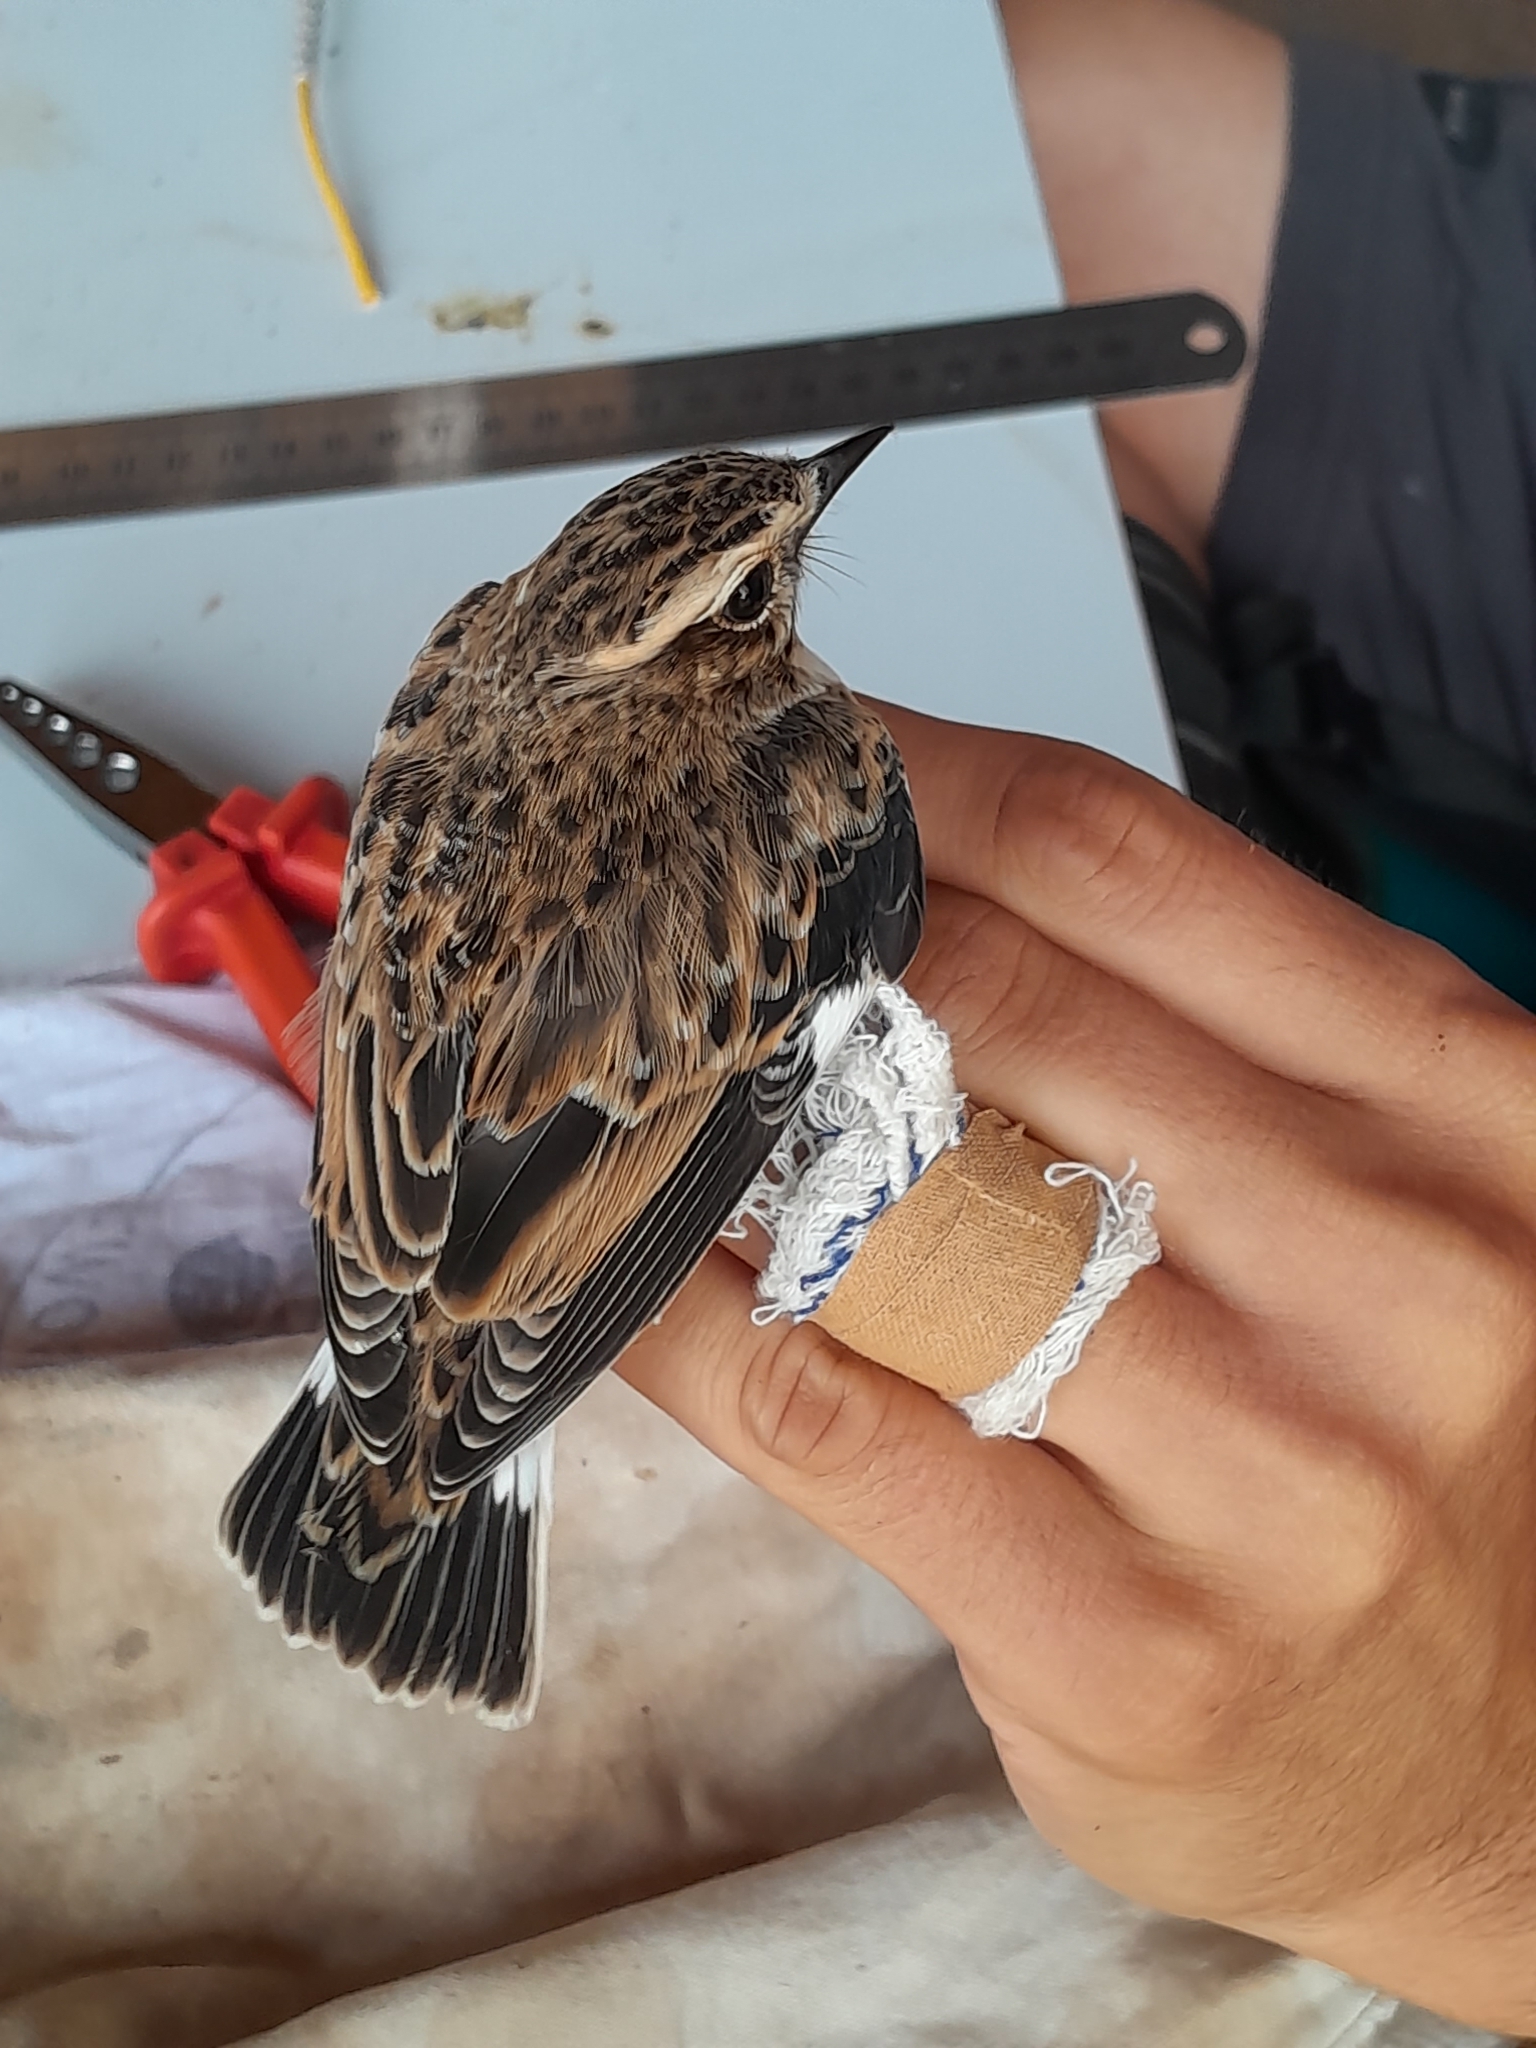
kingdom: Animalia
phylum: Chordata
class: Aves
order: Passeriformes
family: Muscicapidae
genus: Saxicola
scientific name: Saxicola rubetra
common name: Whinchat
